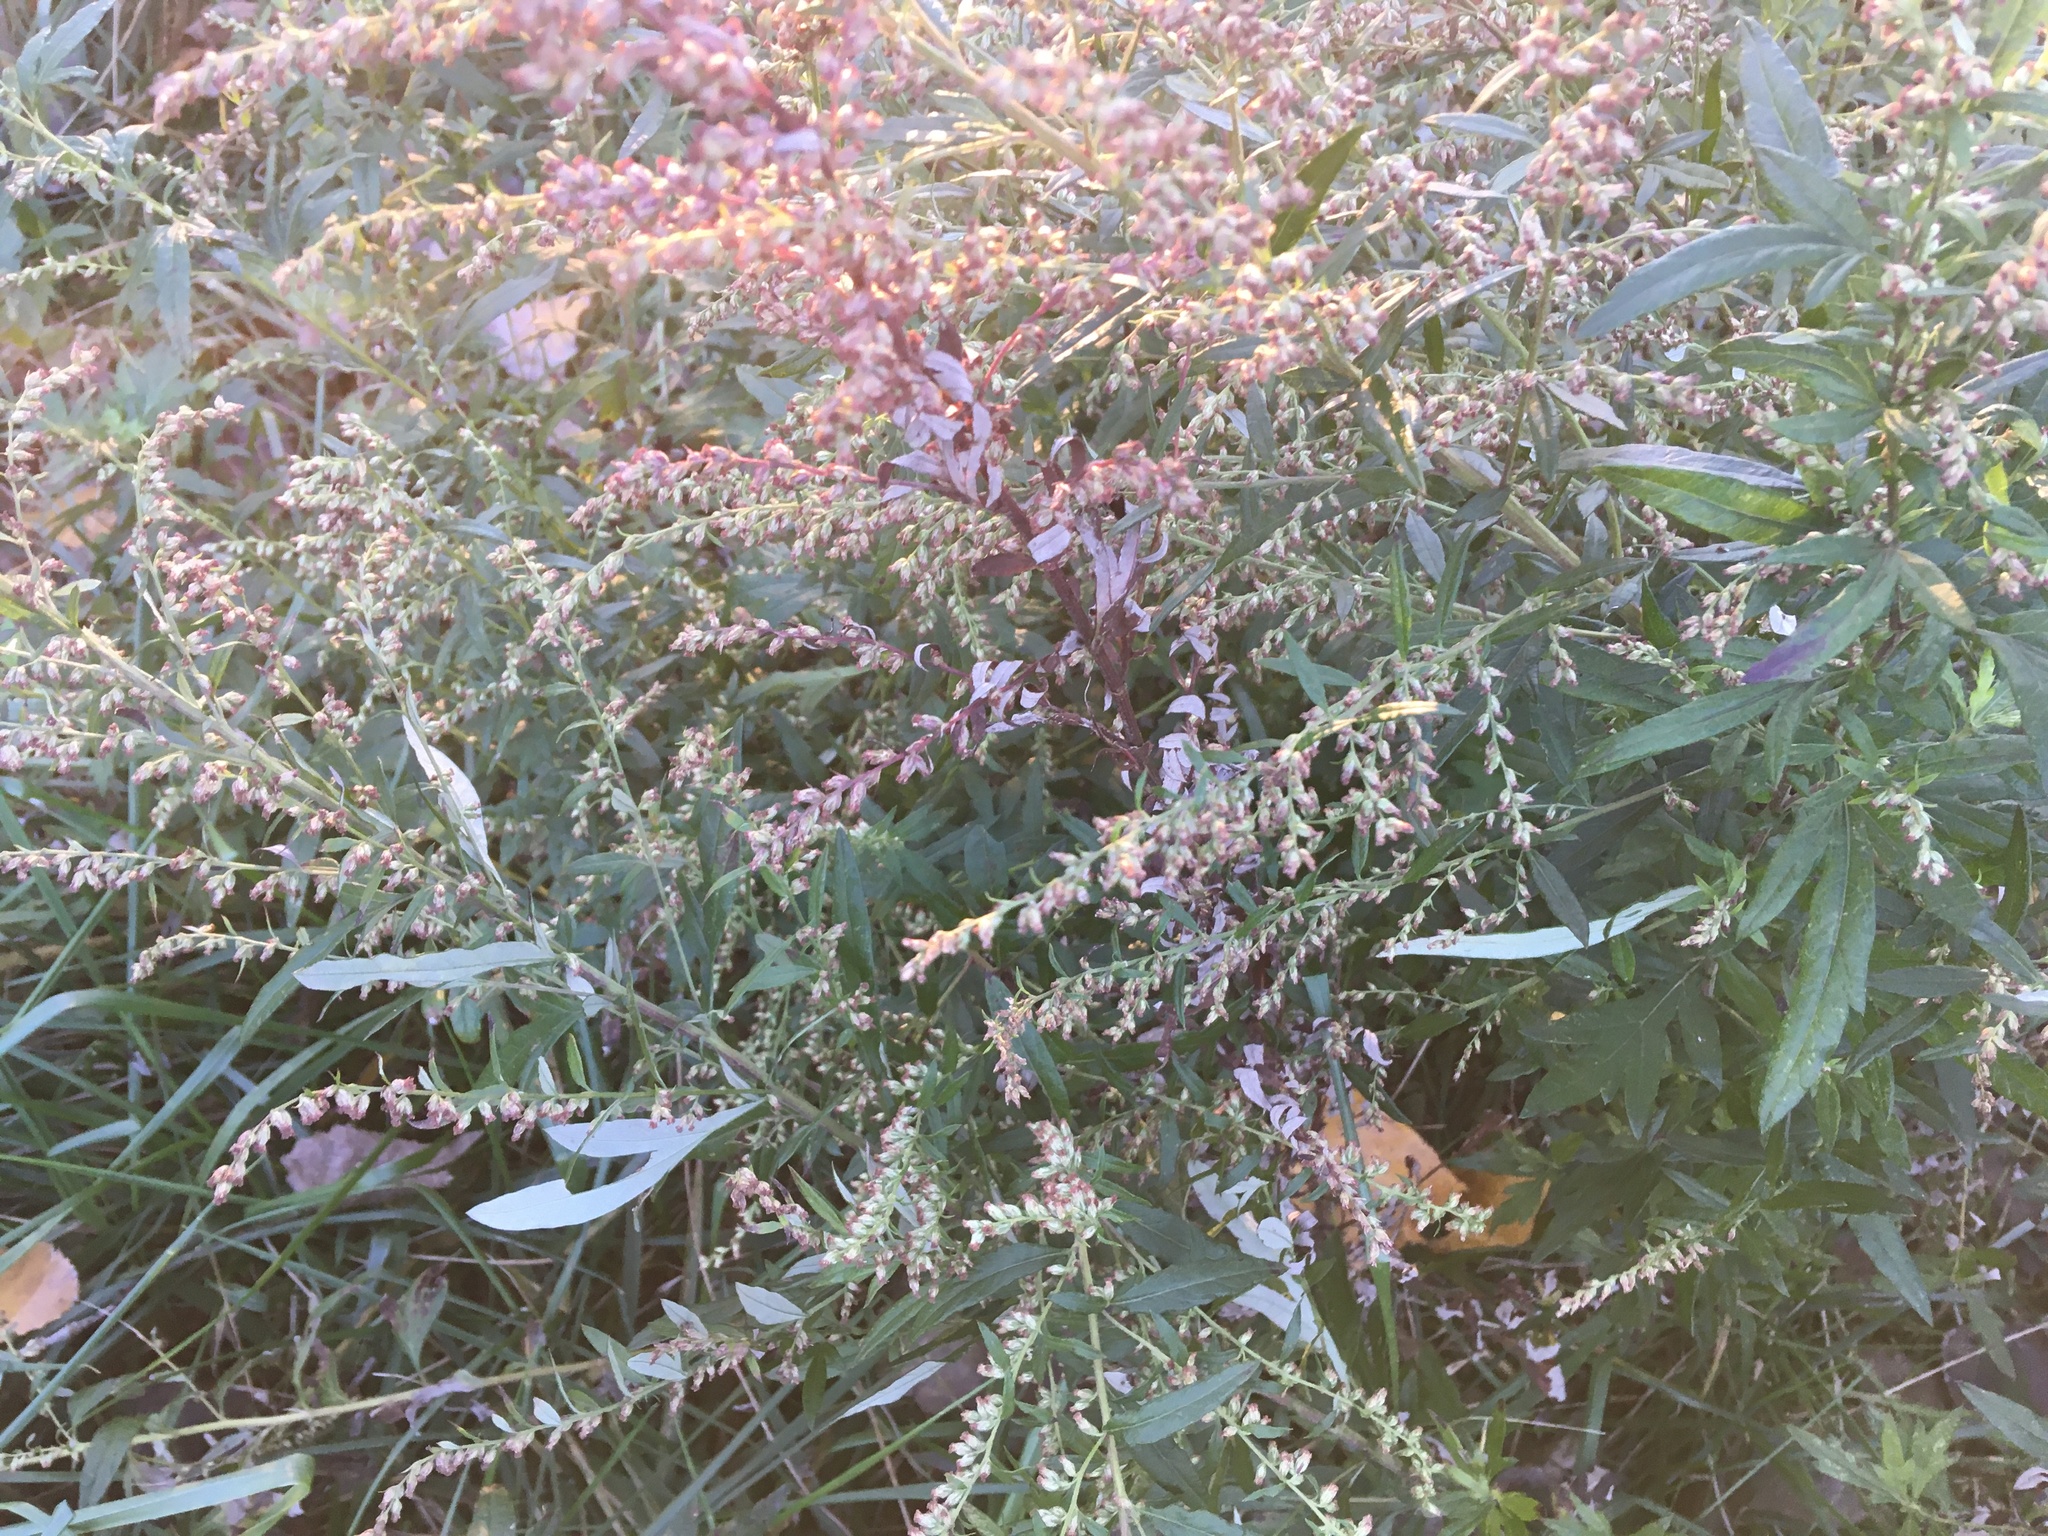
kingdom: Plantae
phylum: Tracheophyta
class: Magnoliopsida
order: Asterales
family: Asteraceae
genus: Artemisia
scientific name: Artemisia vulgaris
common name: Mugwort
